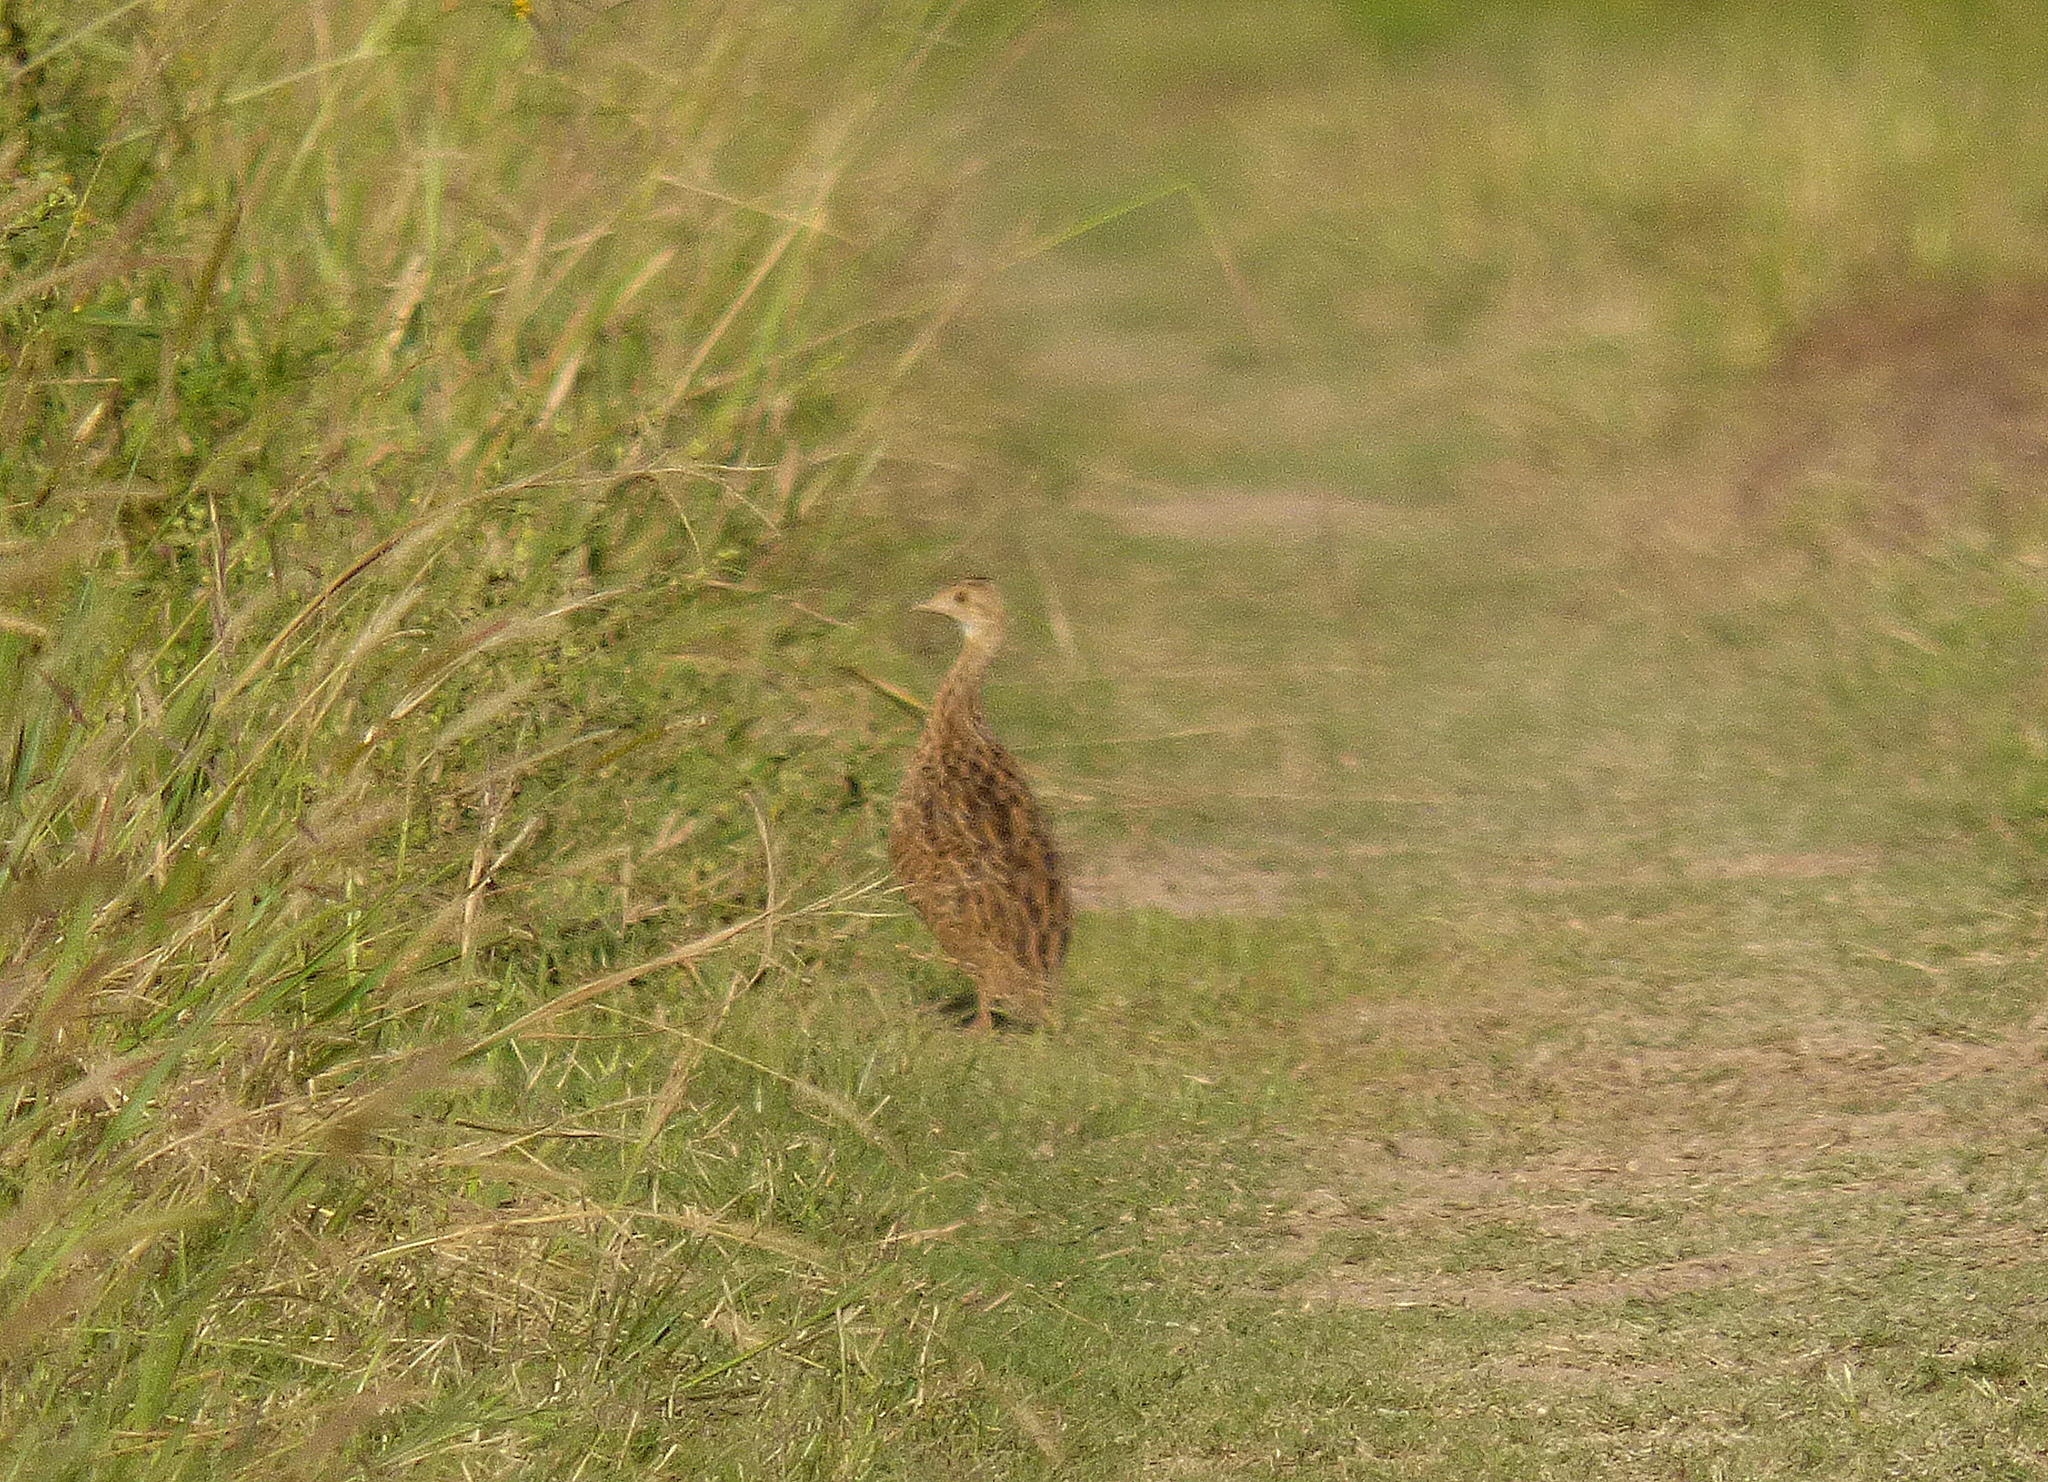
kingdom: Animalia
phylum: Chordata
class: Aves
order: Tinamiformes
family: Tinamidae
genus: Nothura
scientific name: Nothura maculosa
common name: Spotted nothura
